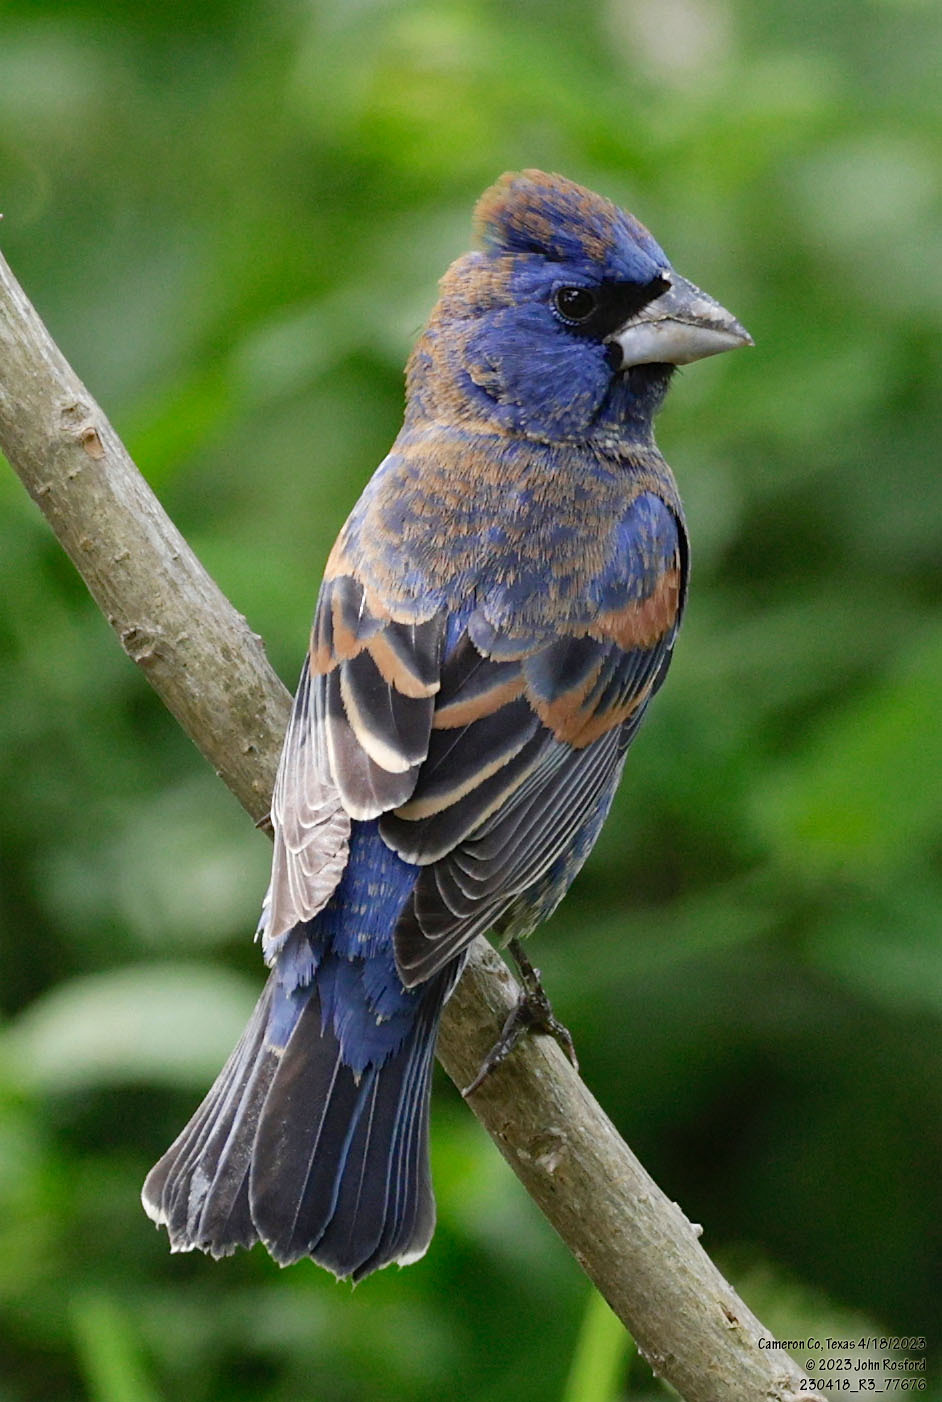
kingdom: Animalia
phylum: Chordata
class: Aves
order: Passeriformes
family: Cardinalidae
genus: Passerina
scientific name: Passerina caerulea
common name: Blue grosbeak
